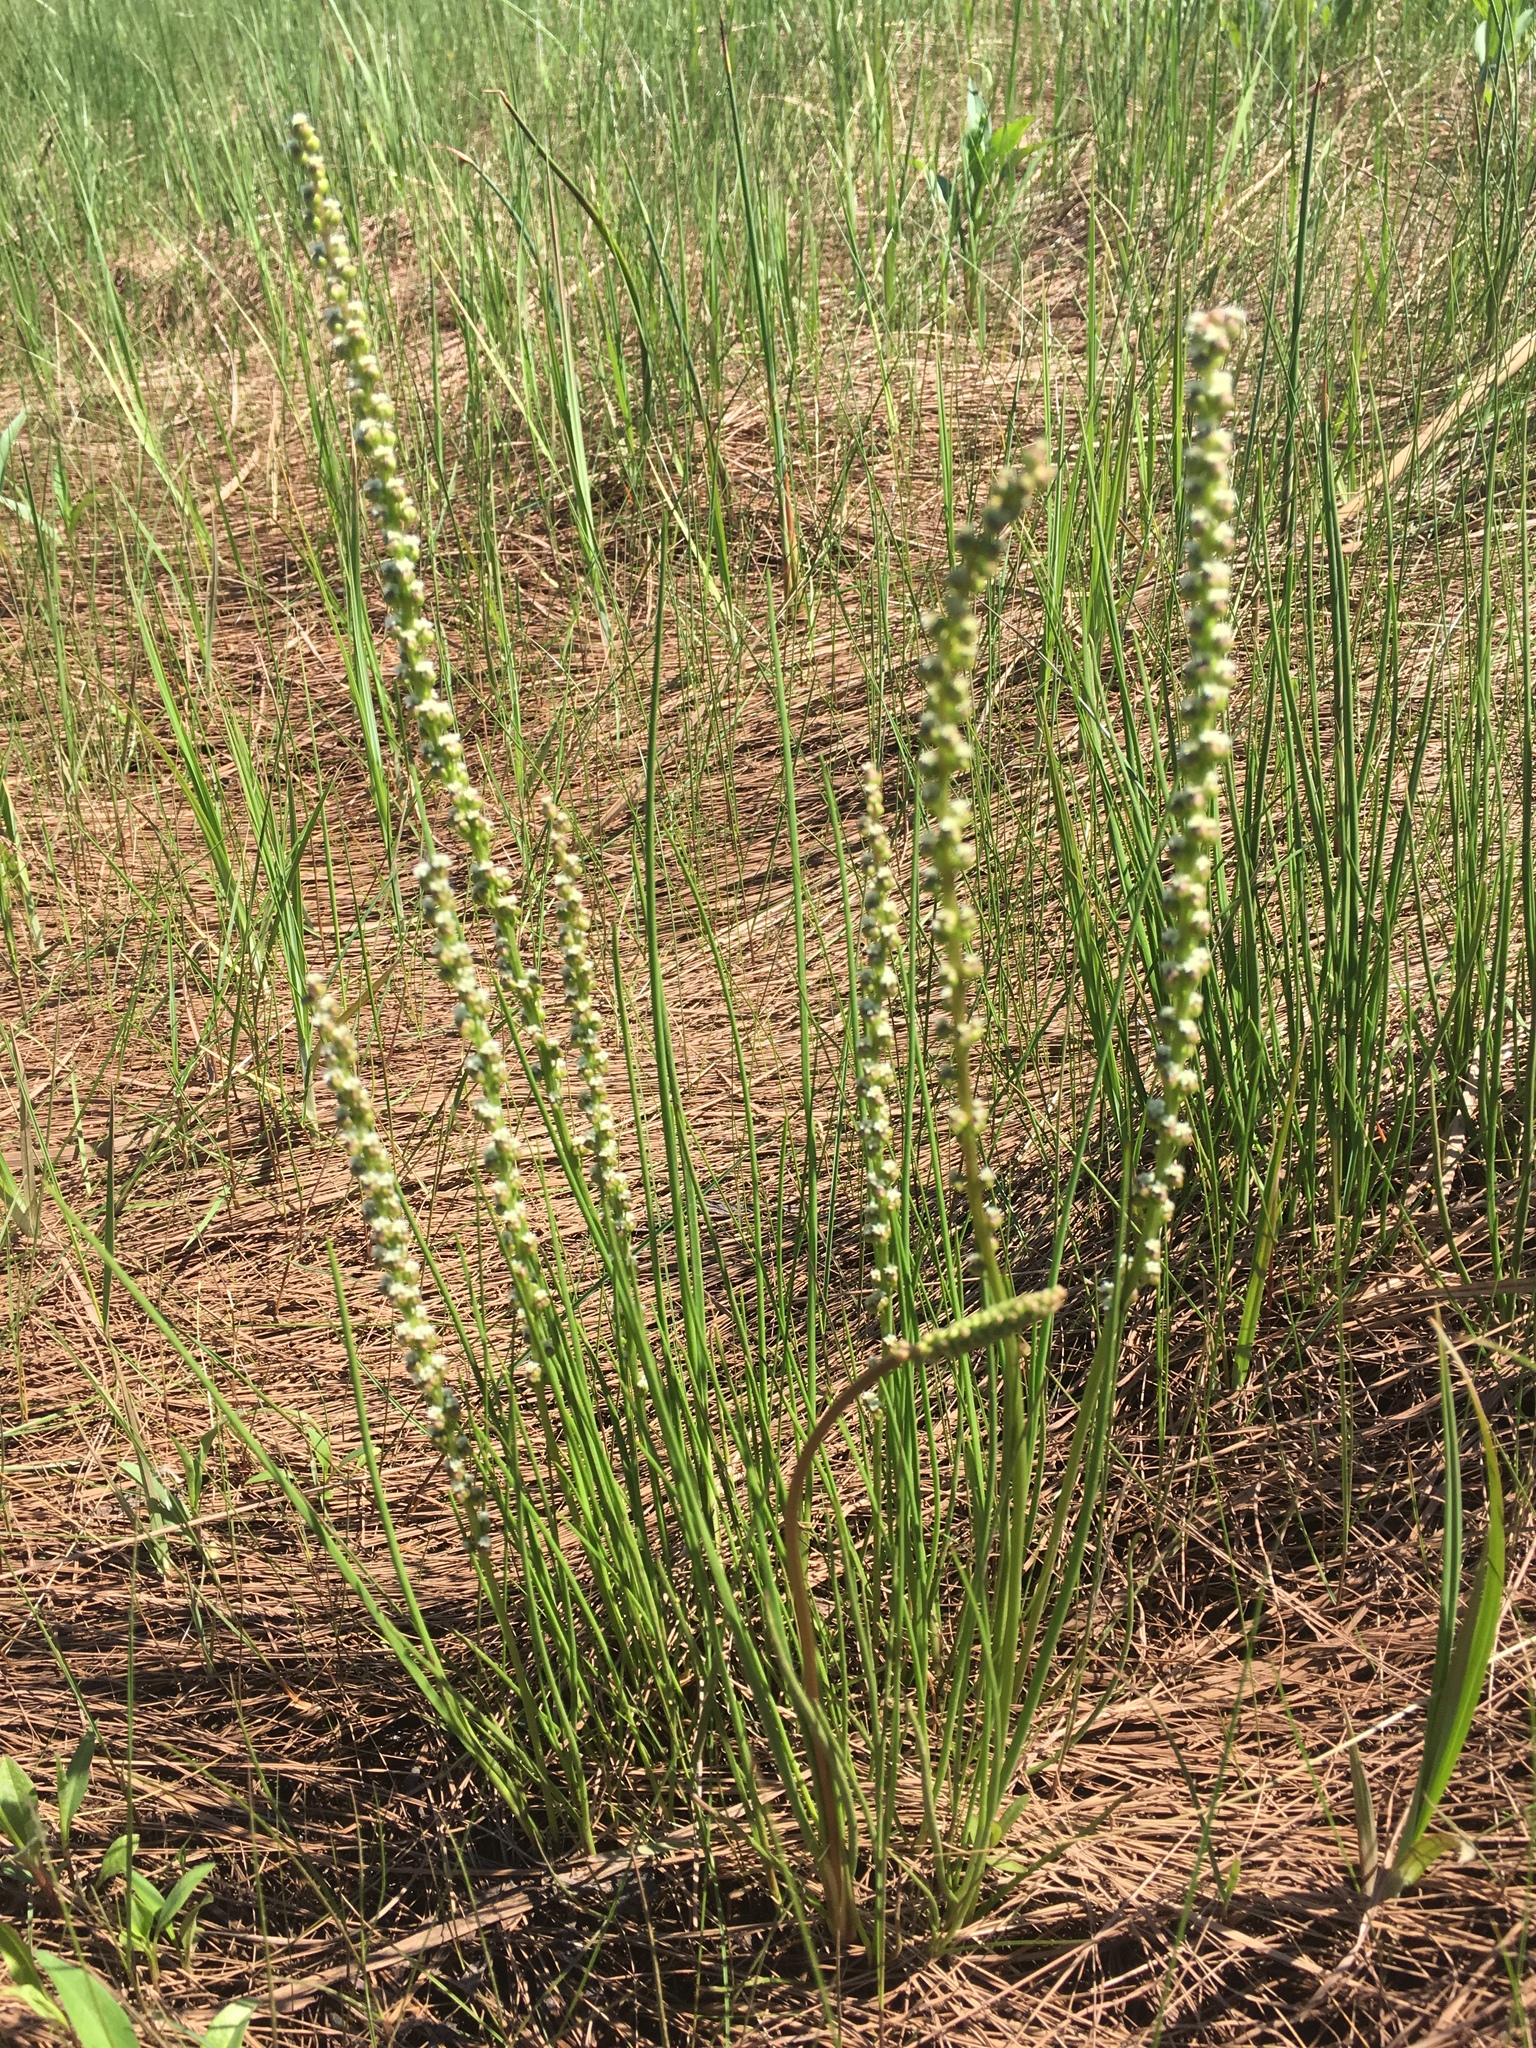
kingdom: Plantae
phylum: Tracheophyta
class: Liliopsida
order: Alismatales
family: Juncaginaceae
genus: Triglochin
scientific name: Triglochin maritima
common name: Sea arrowgrass
